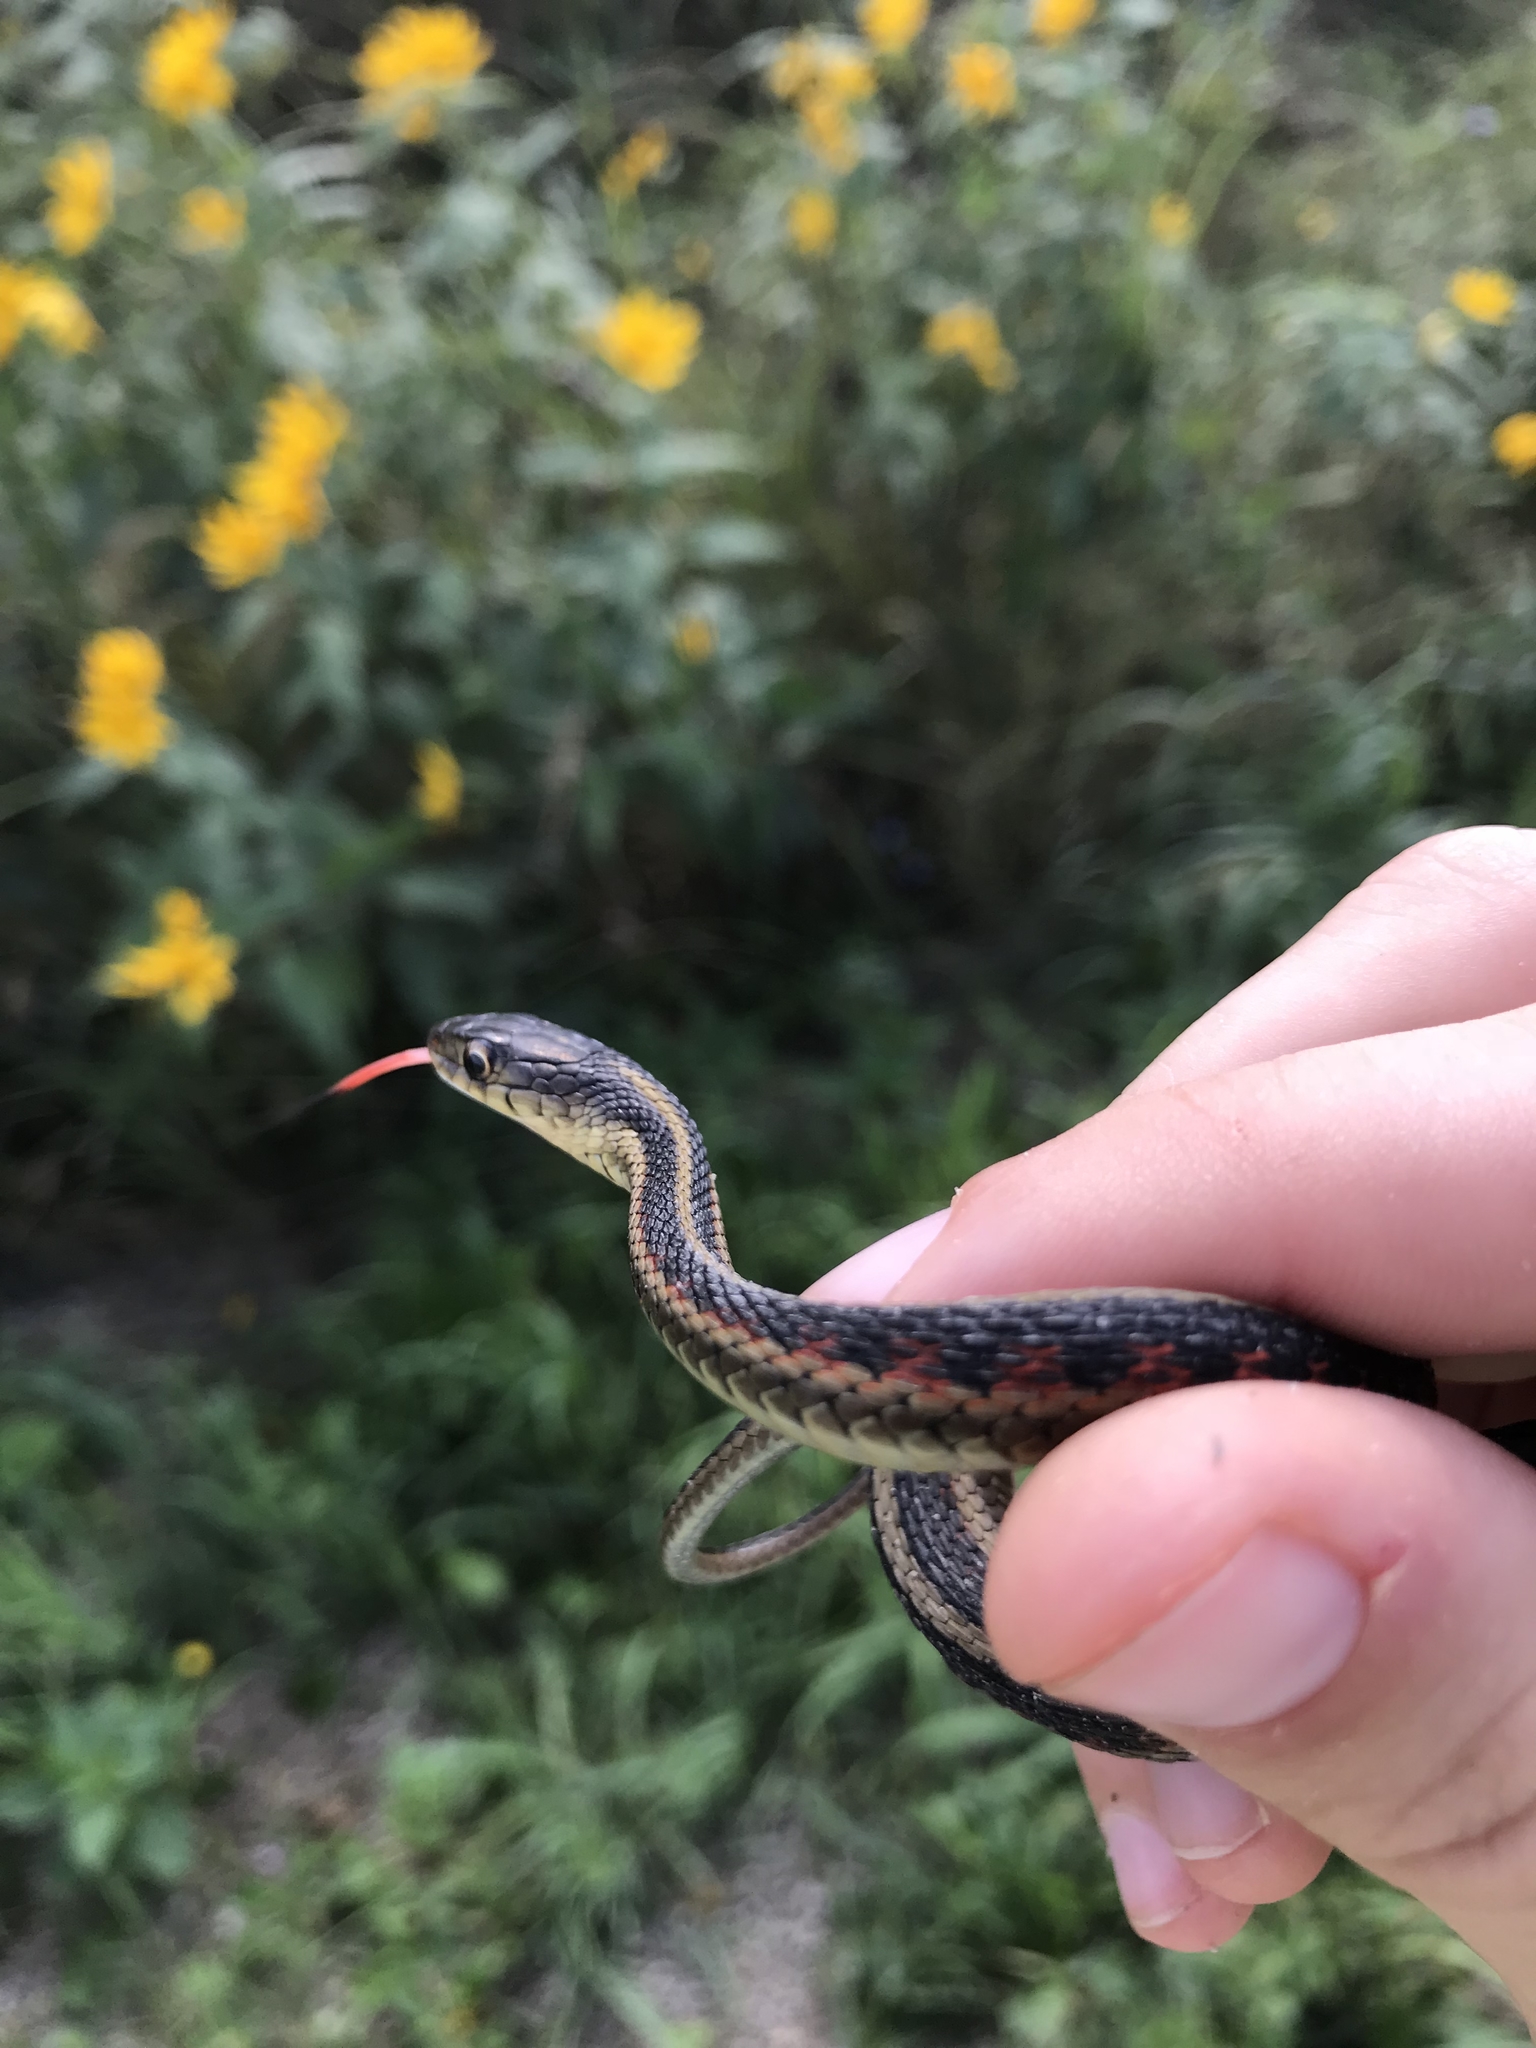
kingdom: Animalia
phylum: Chordata
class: Squamata
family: Colubridae
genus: Thamnophis
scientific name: Thamnophis sirtalis
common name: Common garter snake
